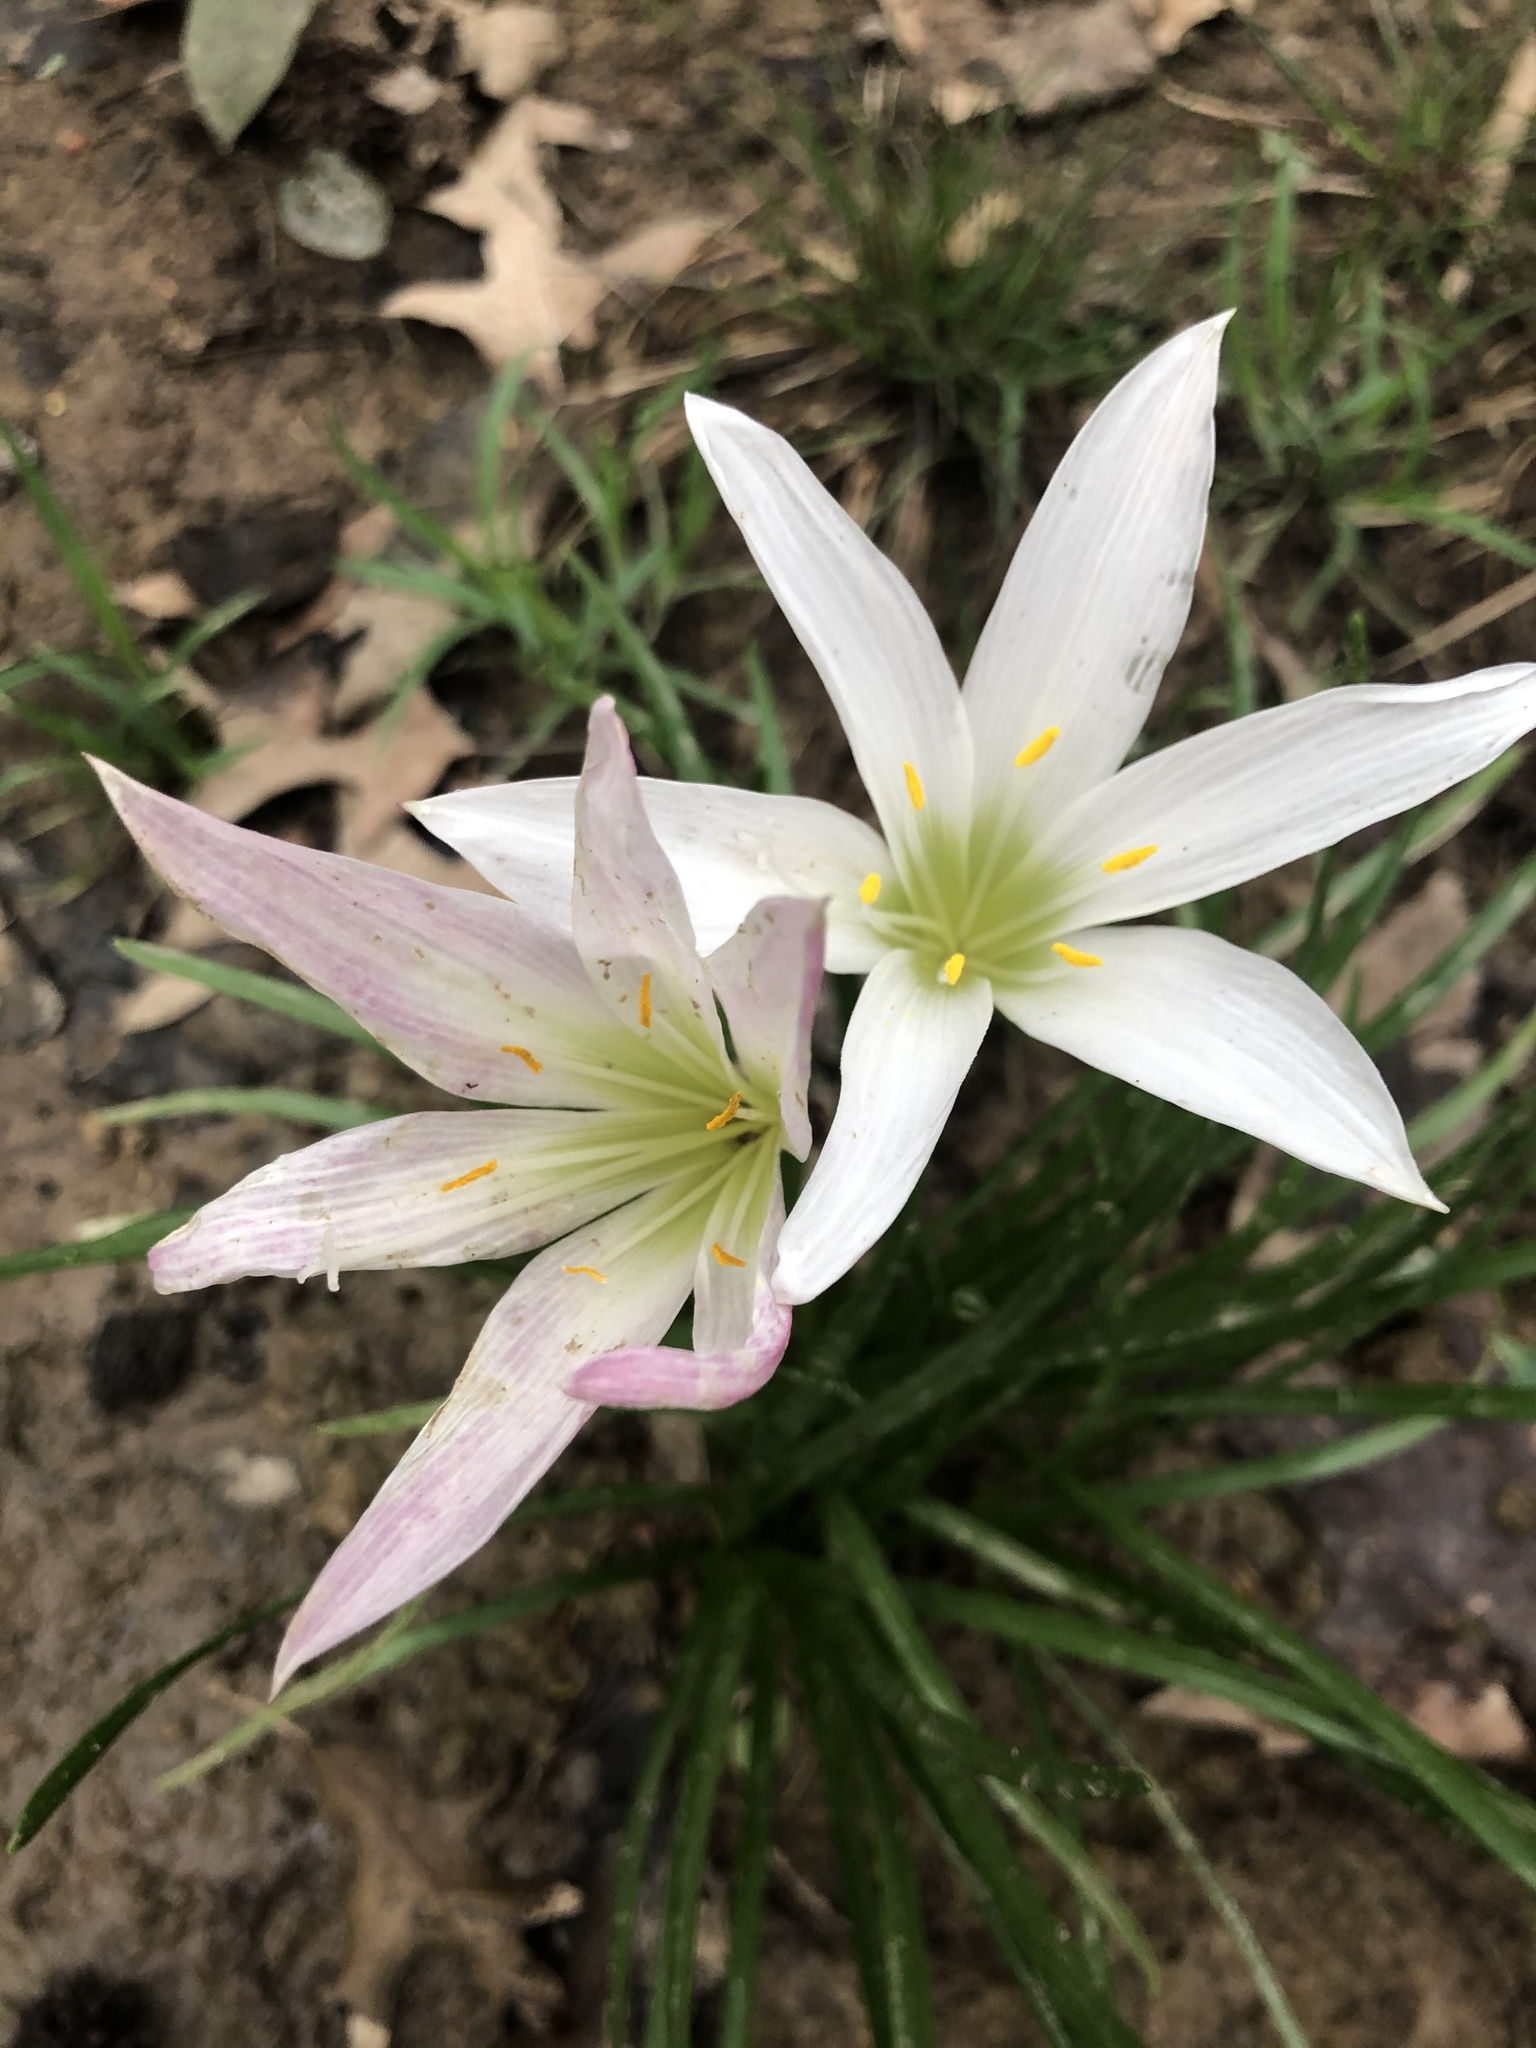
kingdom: Plantae
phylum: Tracheophyta
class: Liliopsida
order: Asparagales
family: Amaryllidaceae
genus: Zephyranthes
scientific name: Zephyranthes atamasco
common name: Atamasco lily
